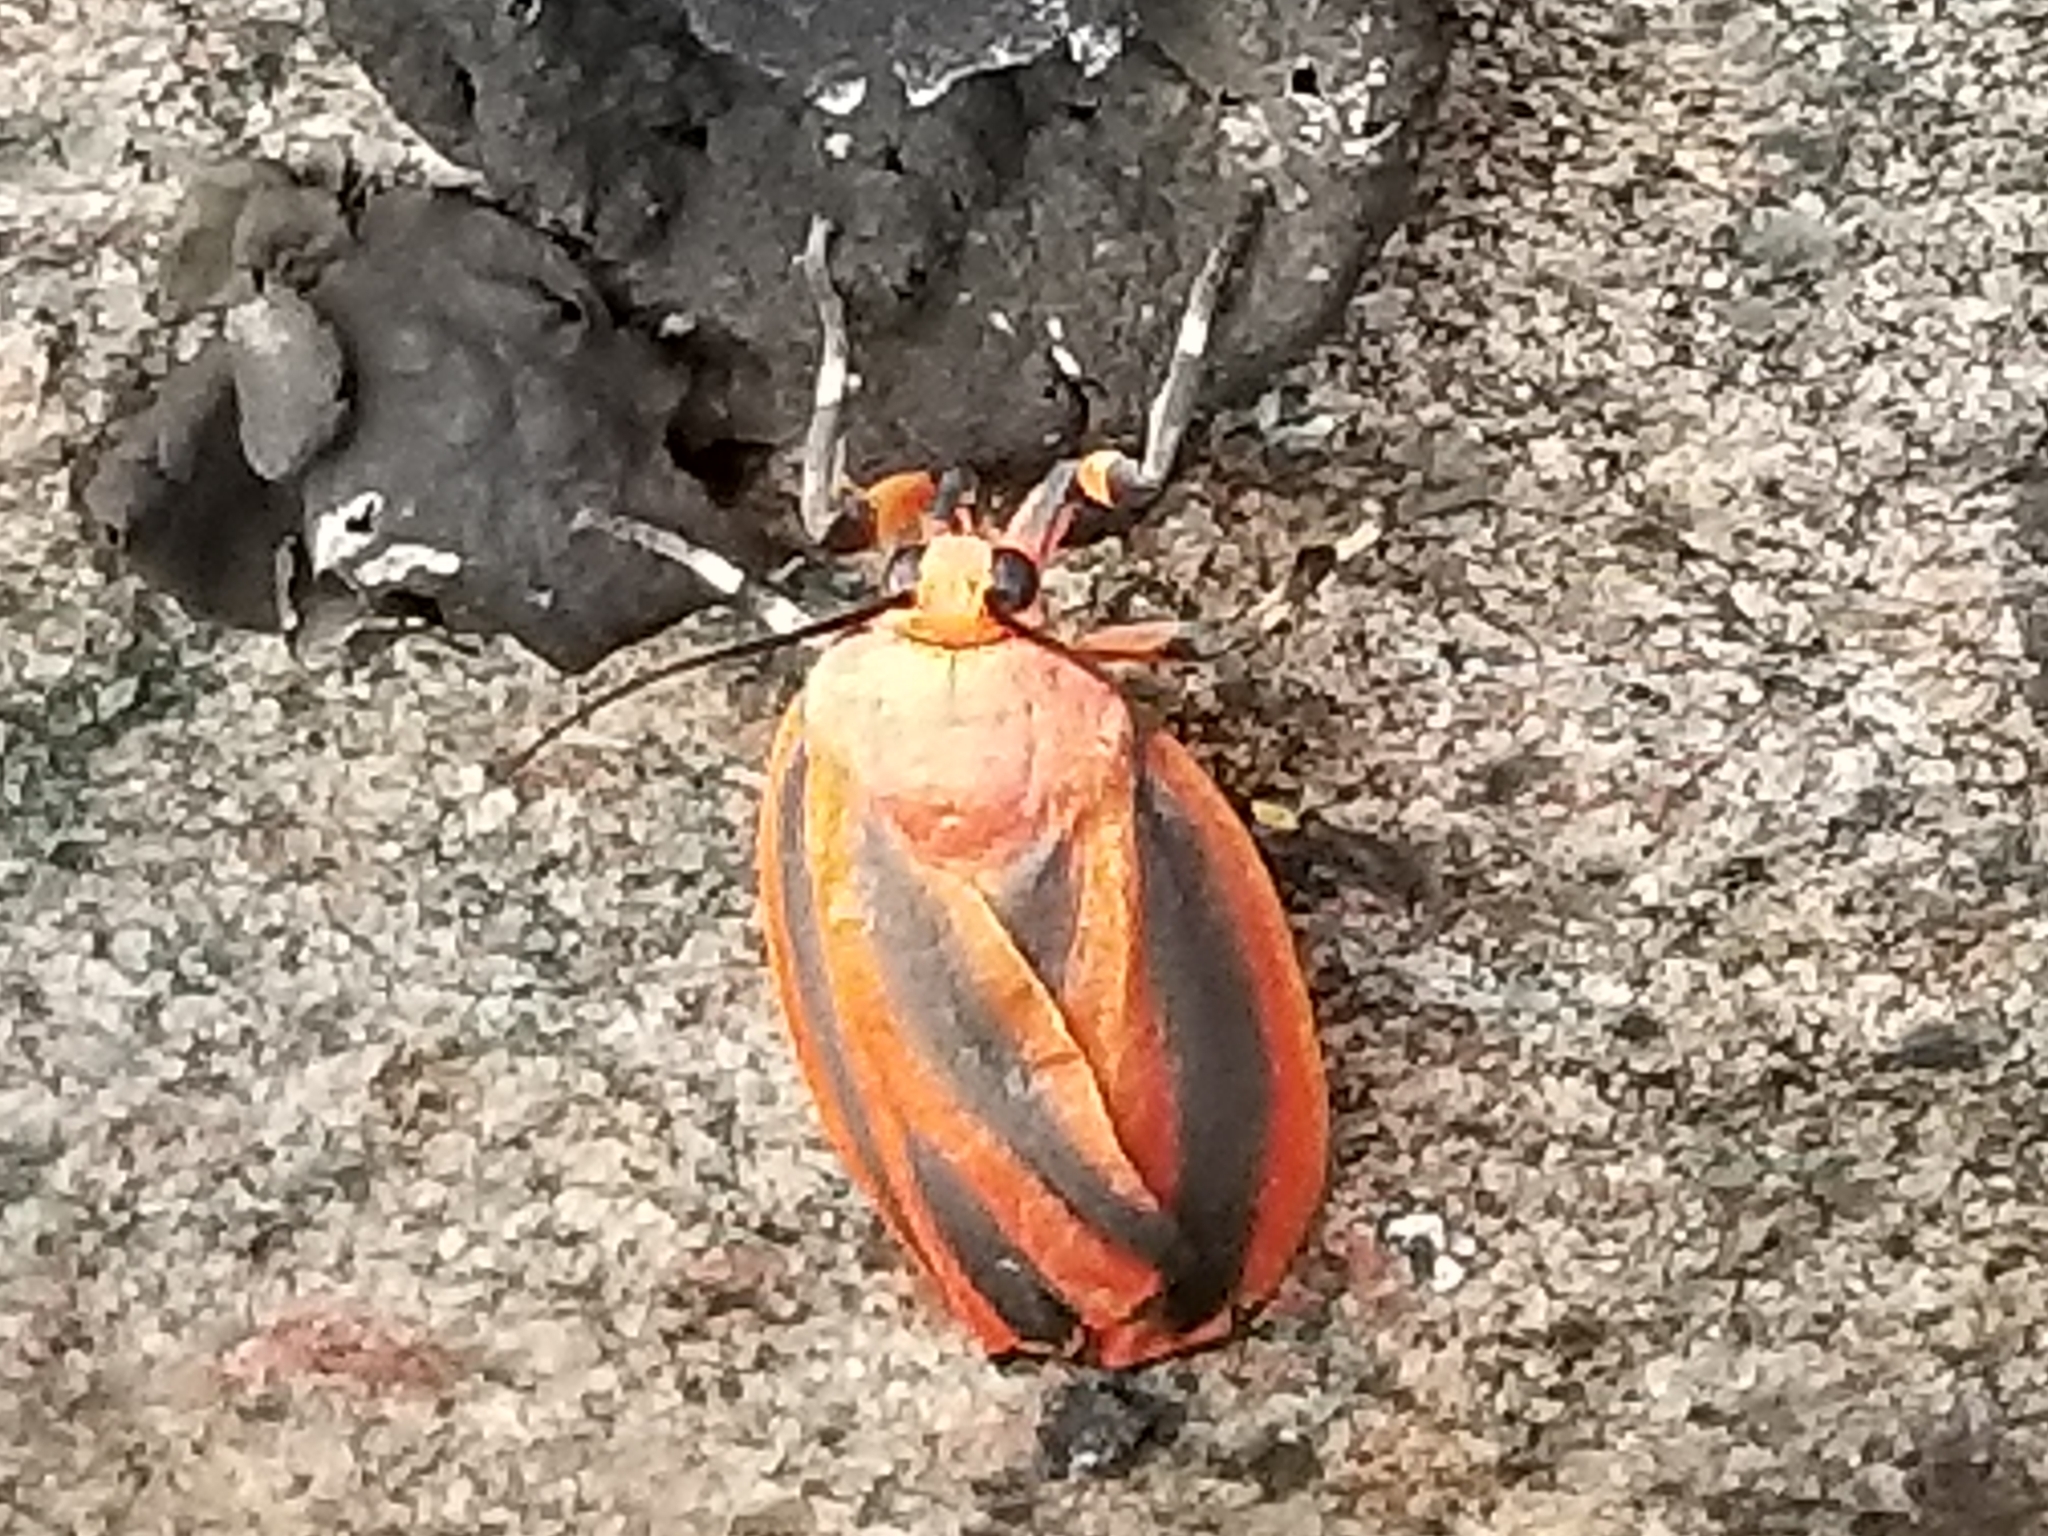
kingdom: Animalia
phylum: Arthropoda
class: Insecta
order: Lepidoptera
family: Erebidae
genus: Hypoprepia
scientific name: Hypoprepia miniata
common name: Scarlet-winged lichen moth
